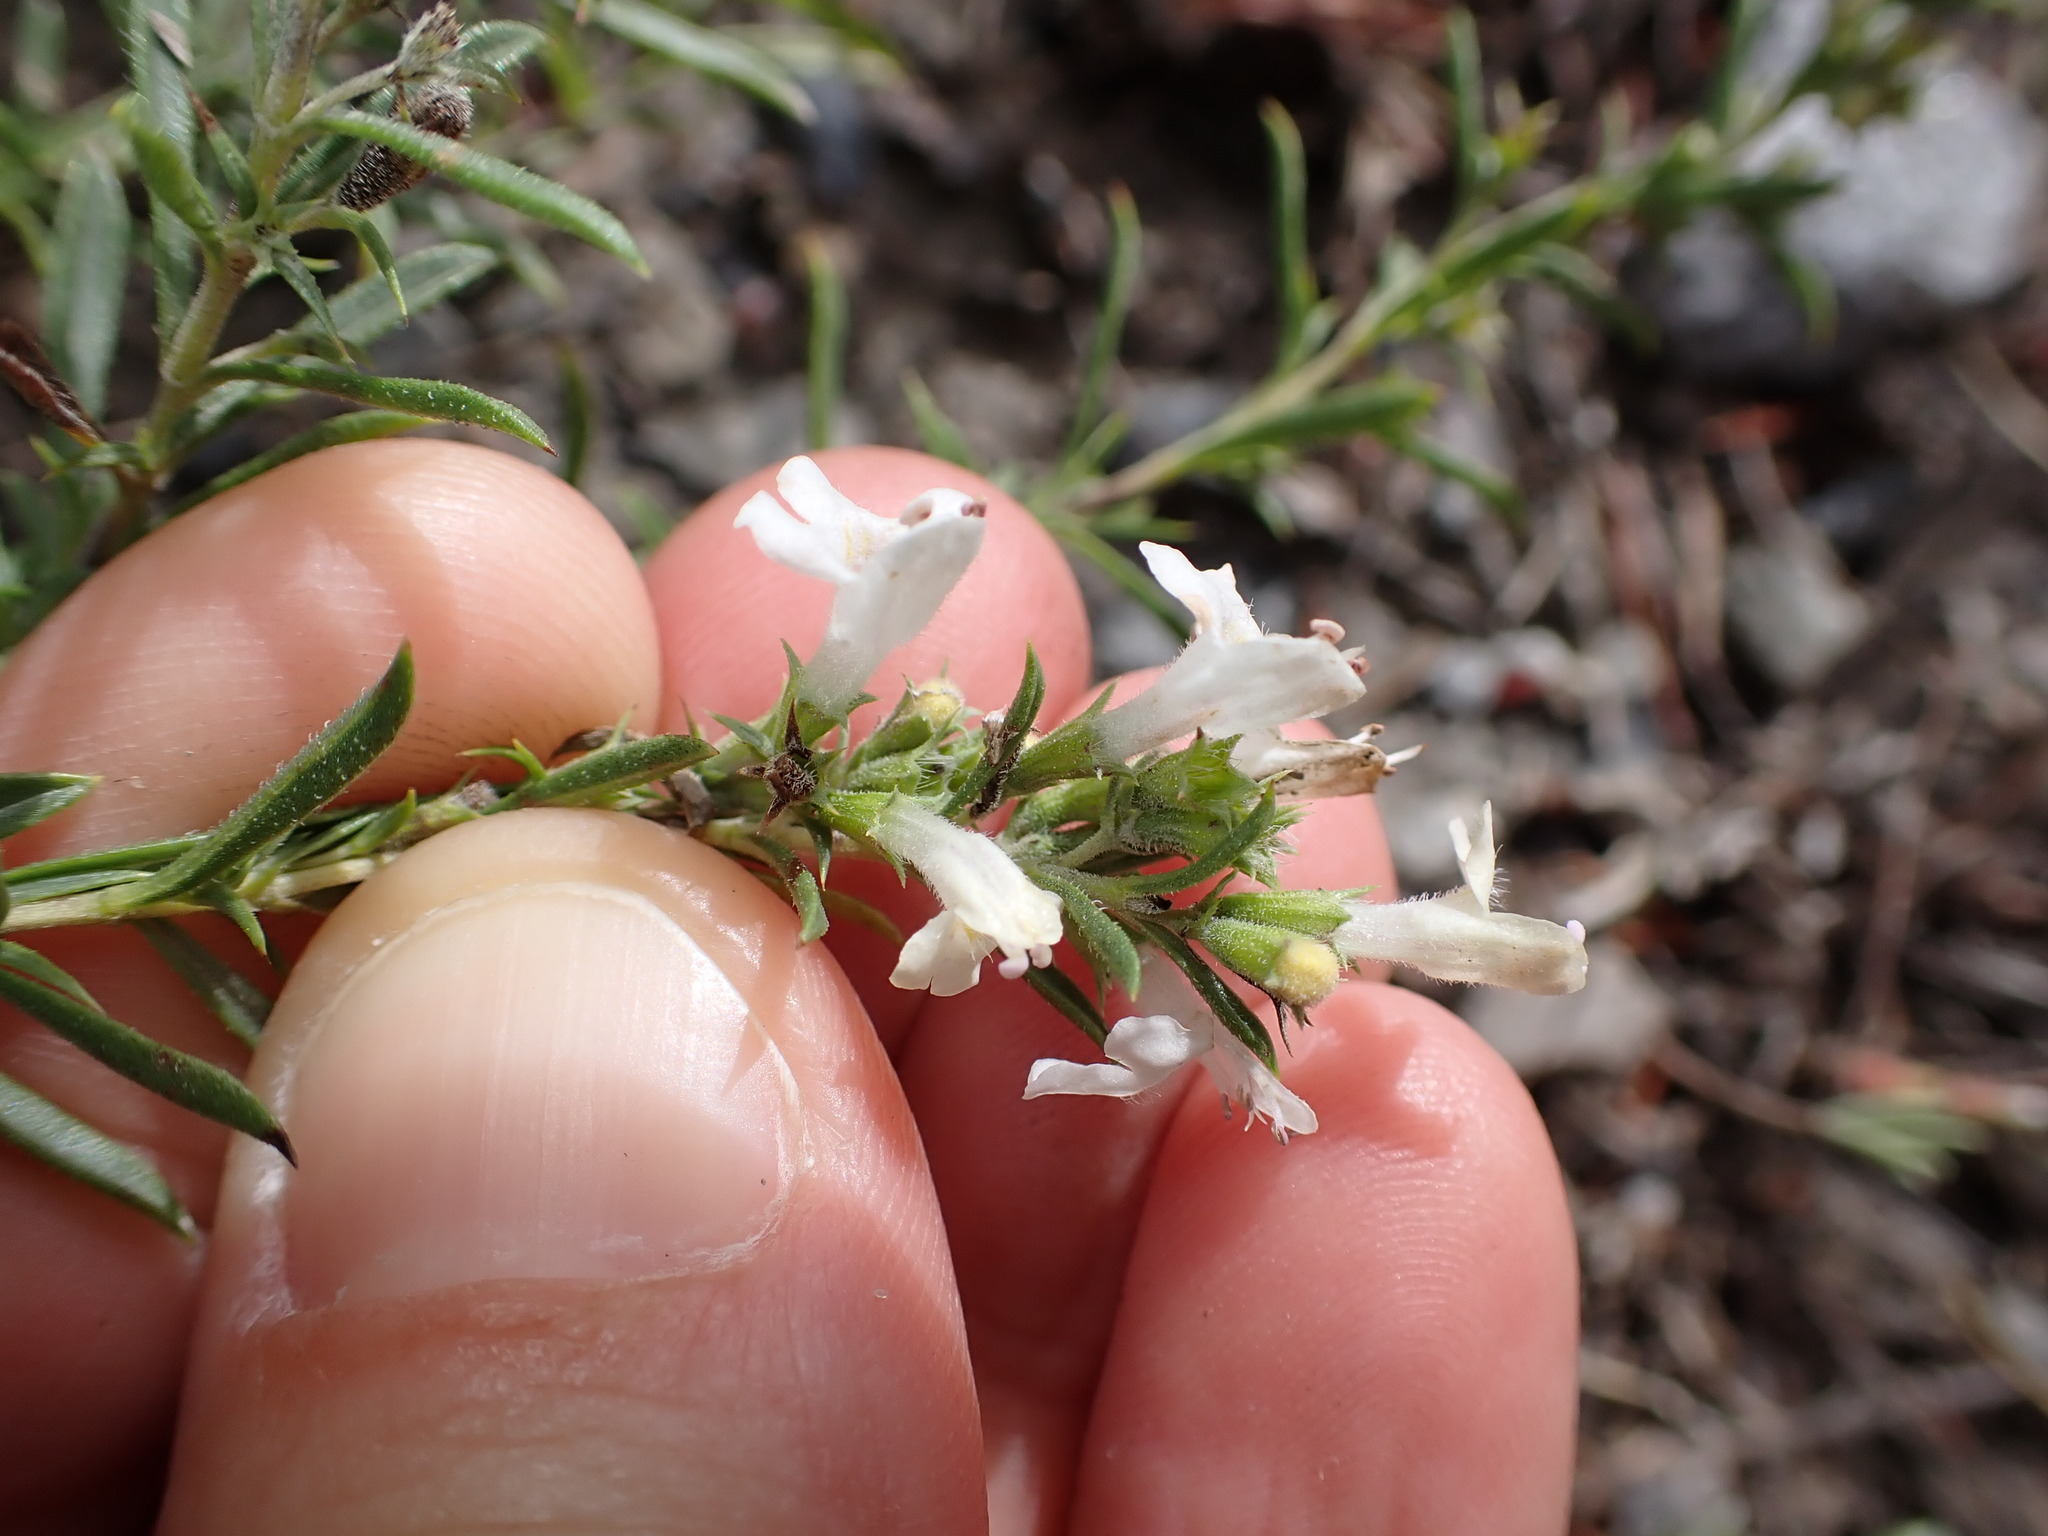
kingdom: Plantae
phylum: Tracheophyta
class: Magnoliopsida
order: Lamiales
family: Lamiaceae
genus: Satureja
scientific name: Satureja montana
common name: Winter savory
